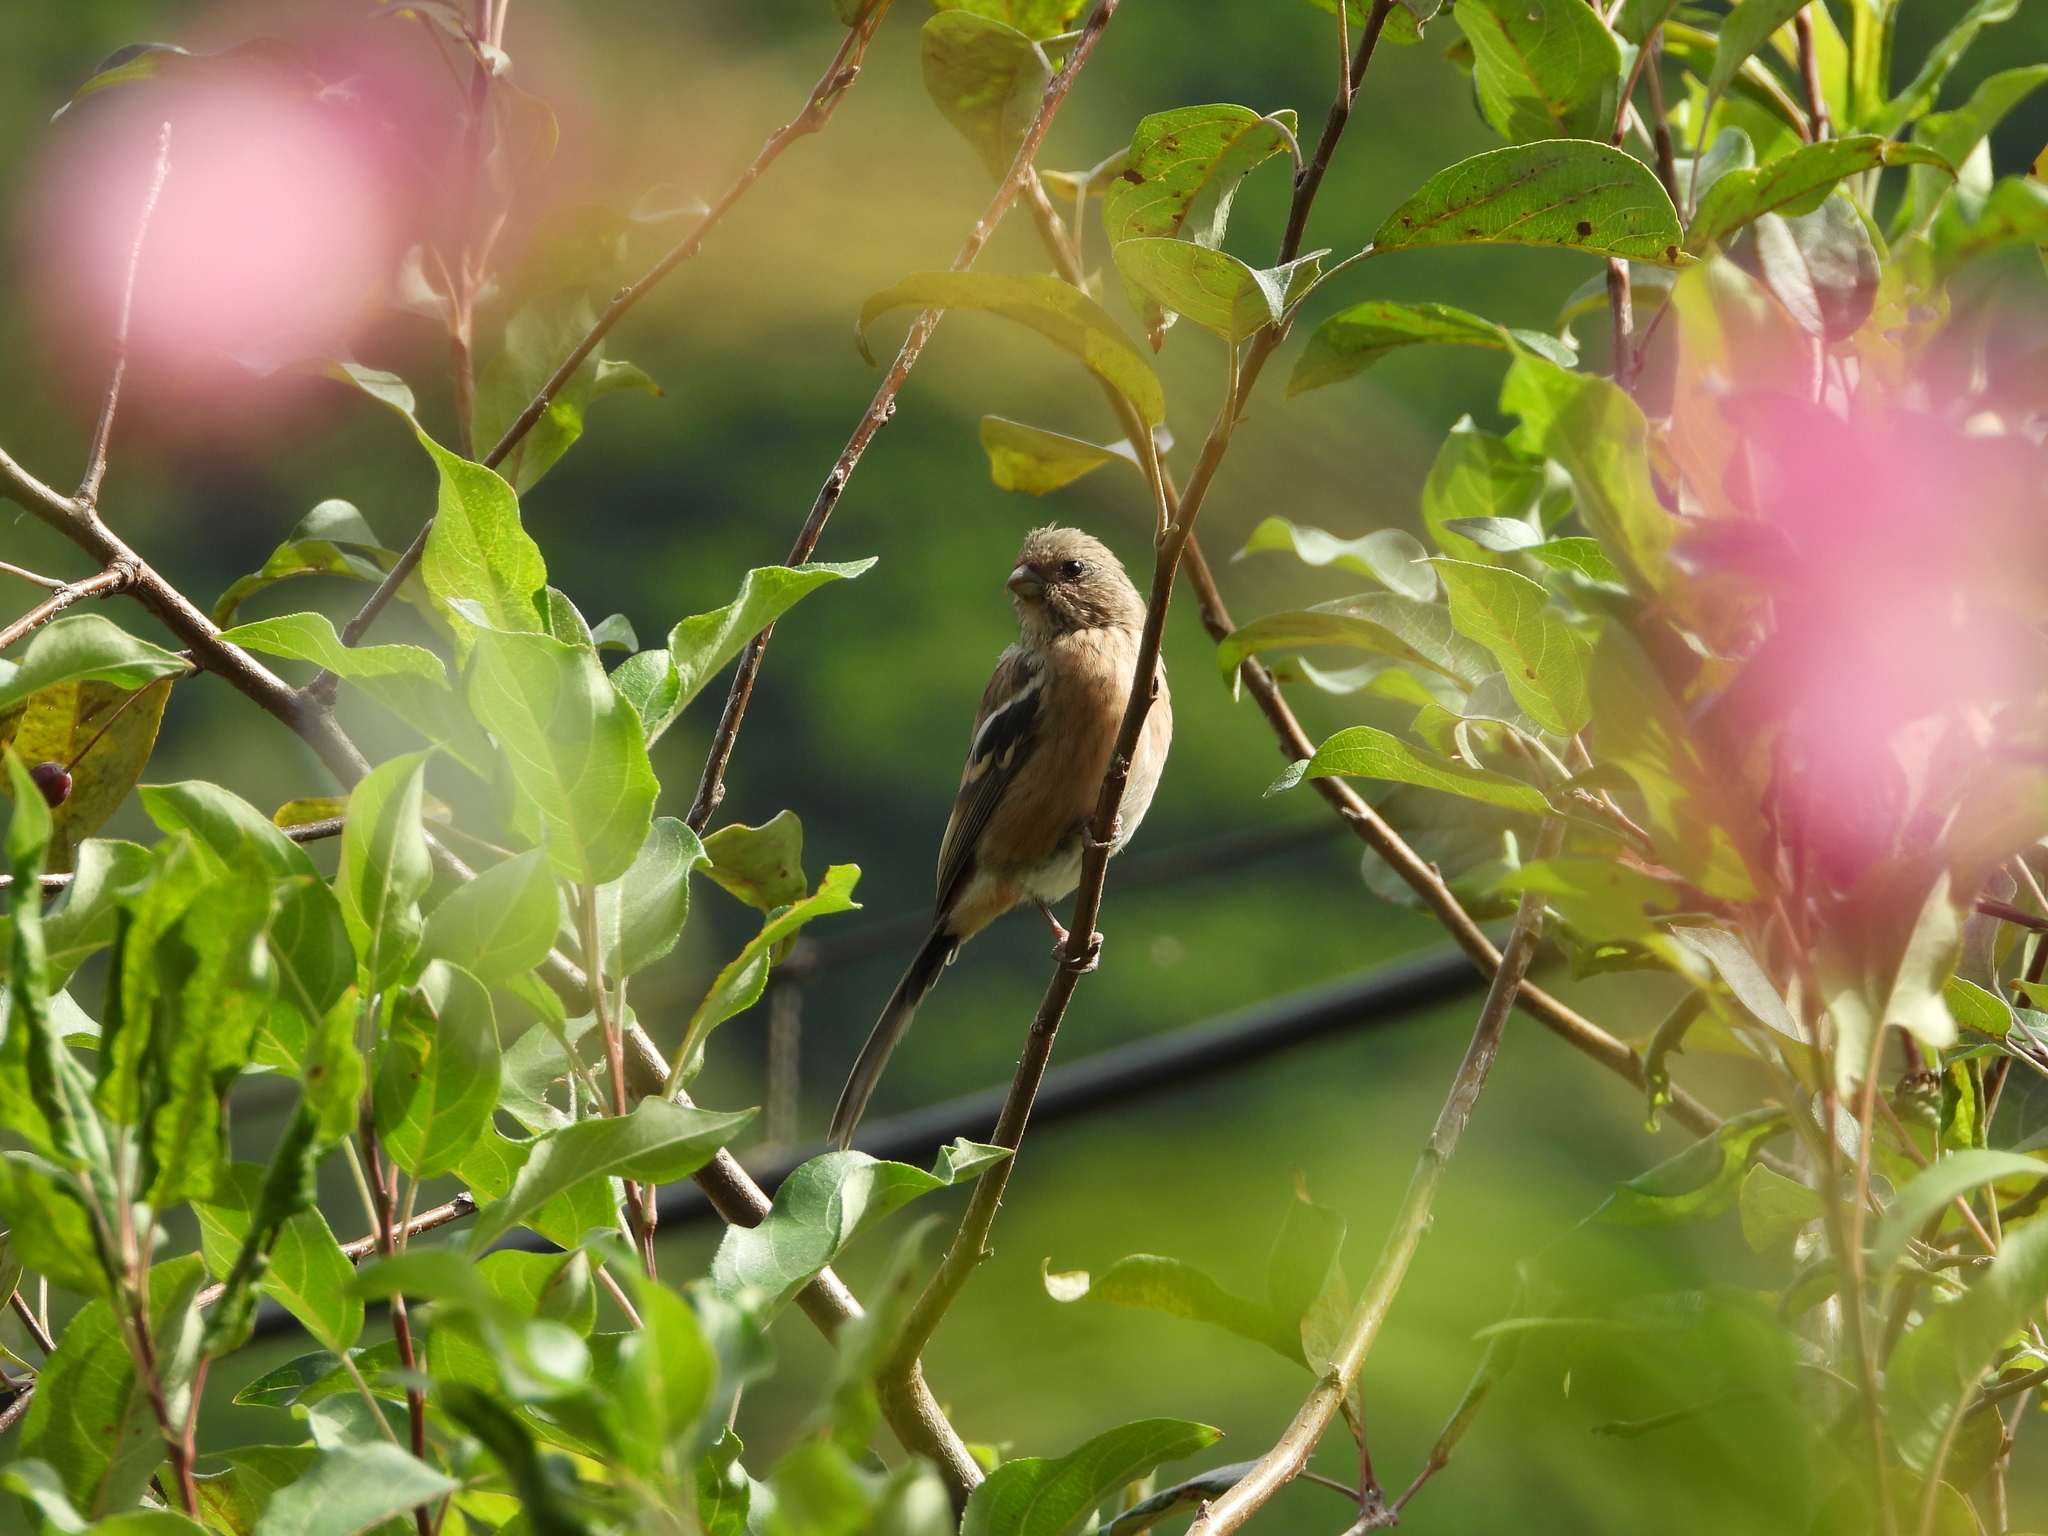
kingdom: Animalia
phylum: Chordata
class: Aves
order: Passeriformes
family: Fringillidae
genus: Carpodacus
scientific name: Carpodacus sibiricus
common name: Long-tailed rosefinch
